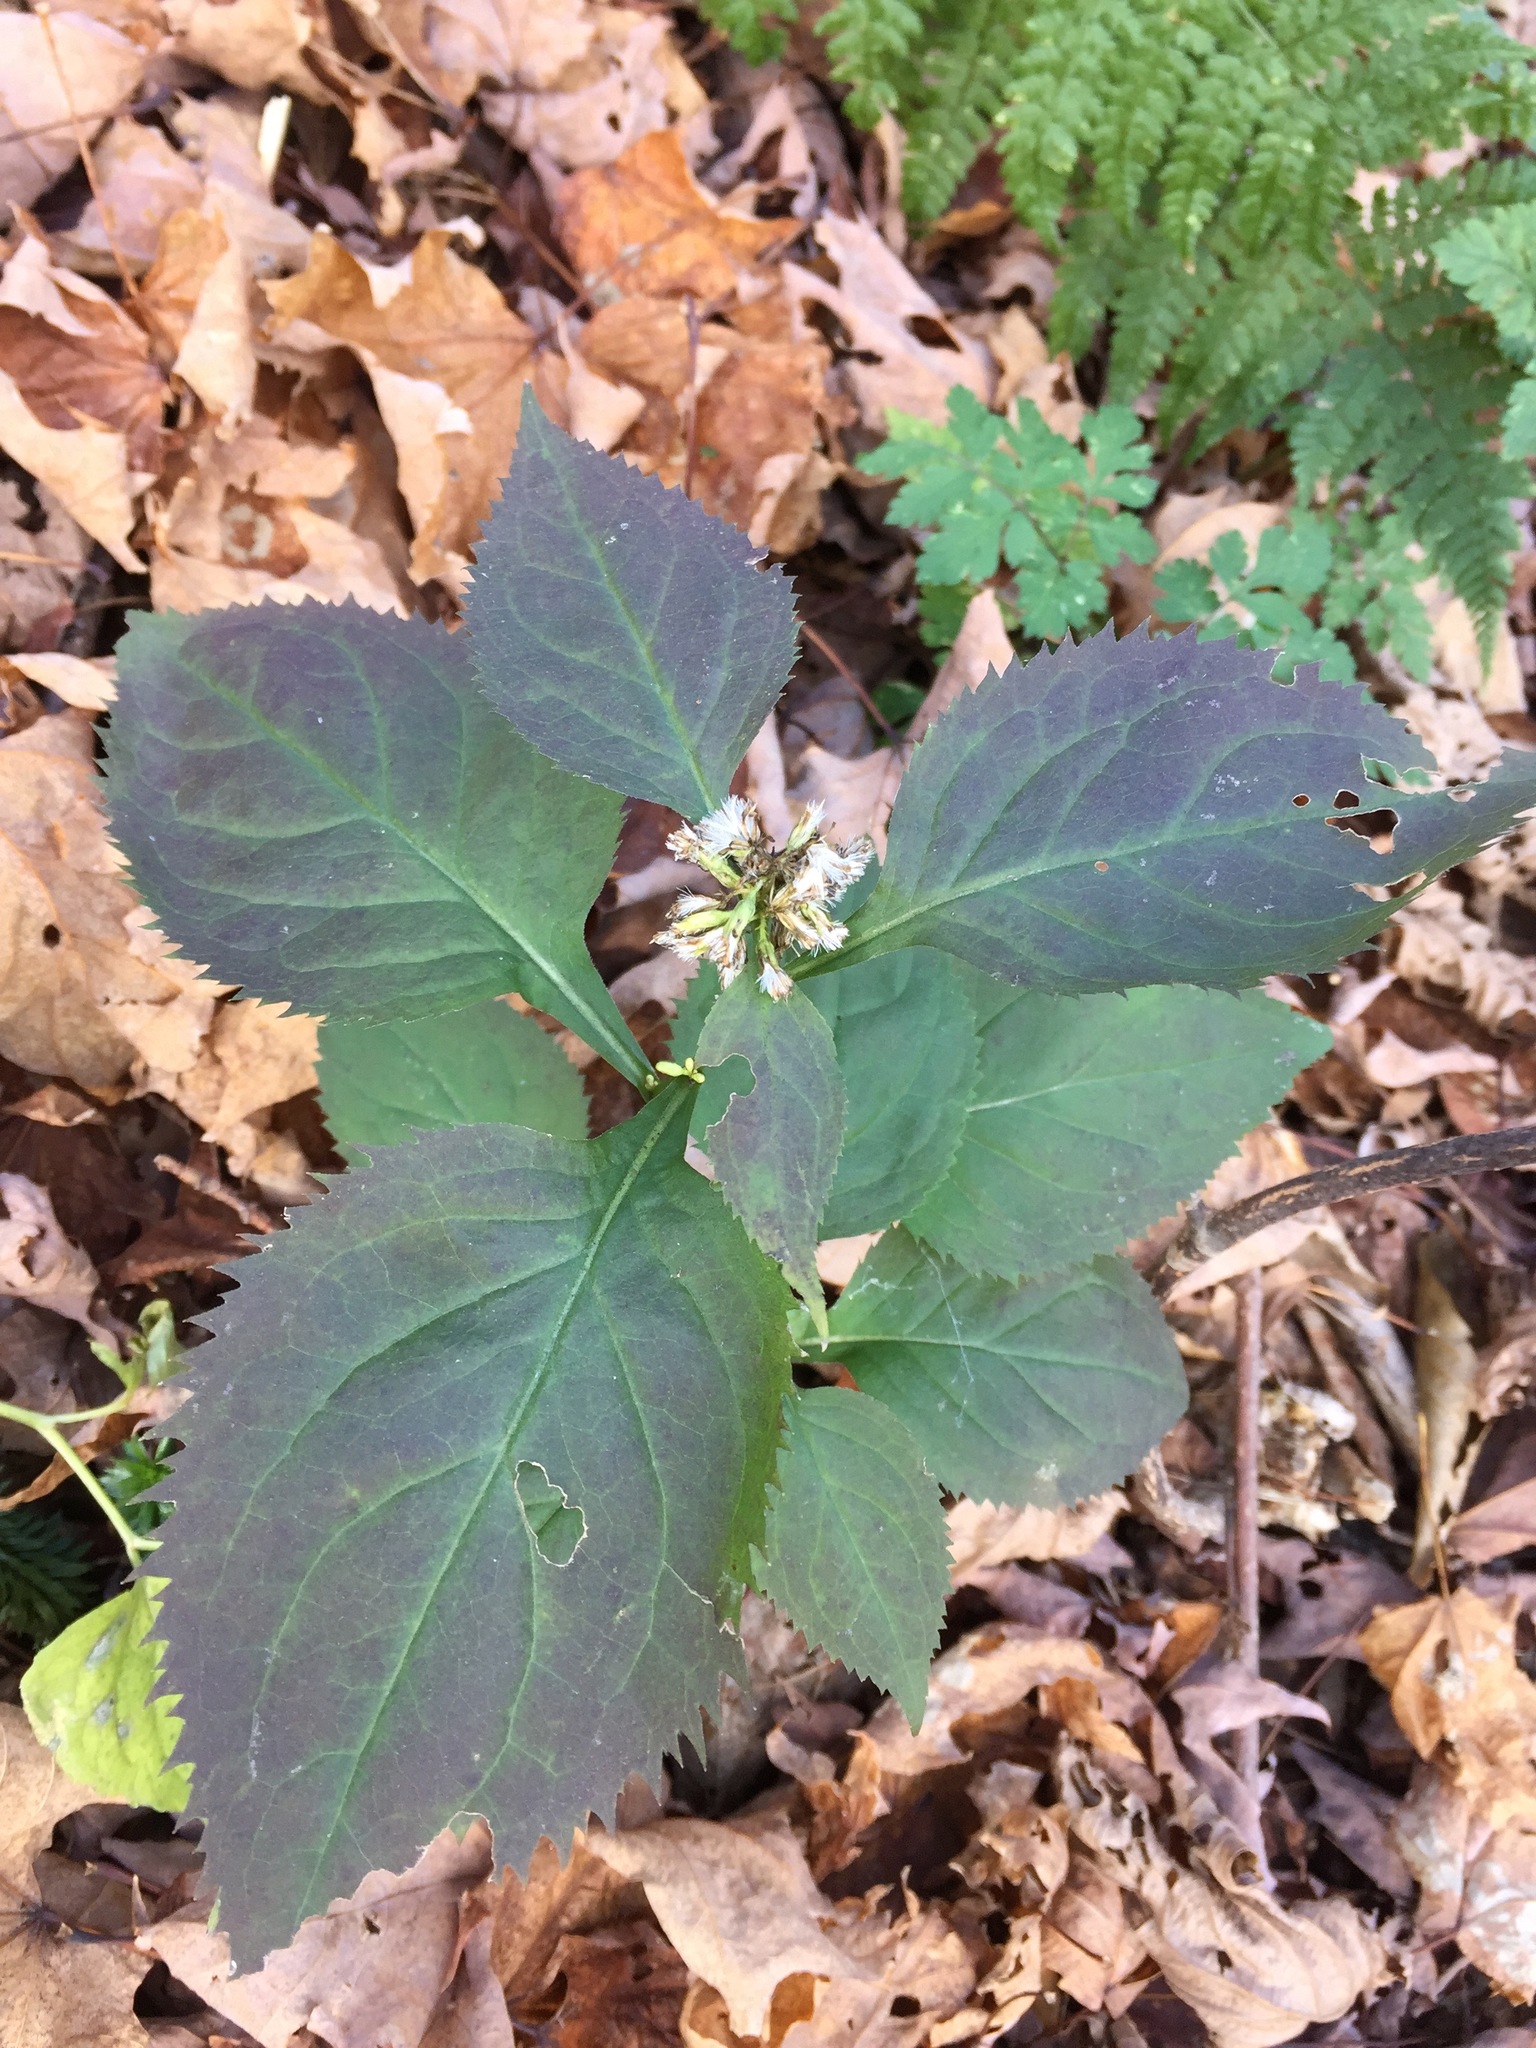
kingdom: Plantae
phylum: Tracheophyta
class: Magnoliopsida
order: Asterales
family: Asteraceae
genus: Solidago
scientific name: Solidago flexicaulis
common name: Zig-zag goldenrod
